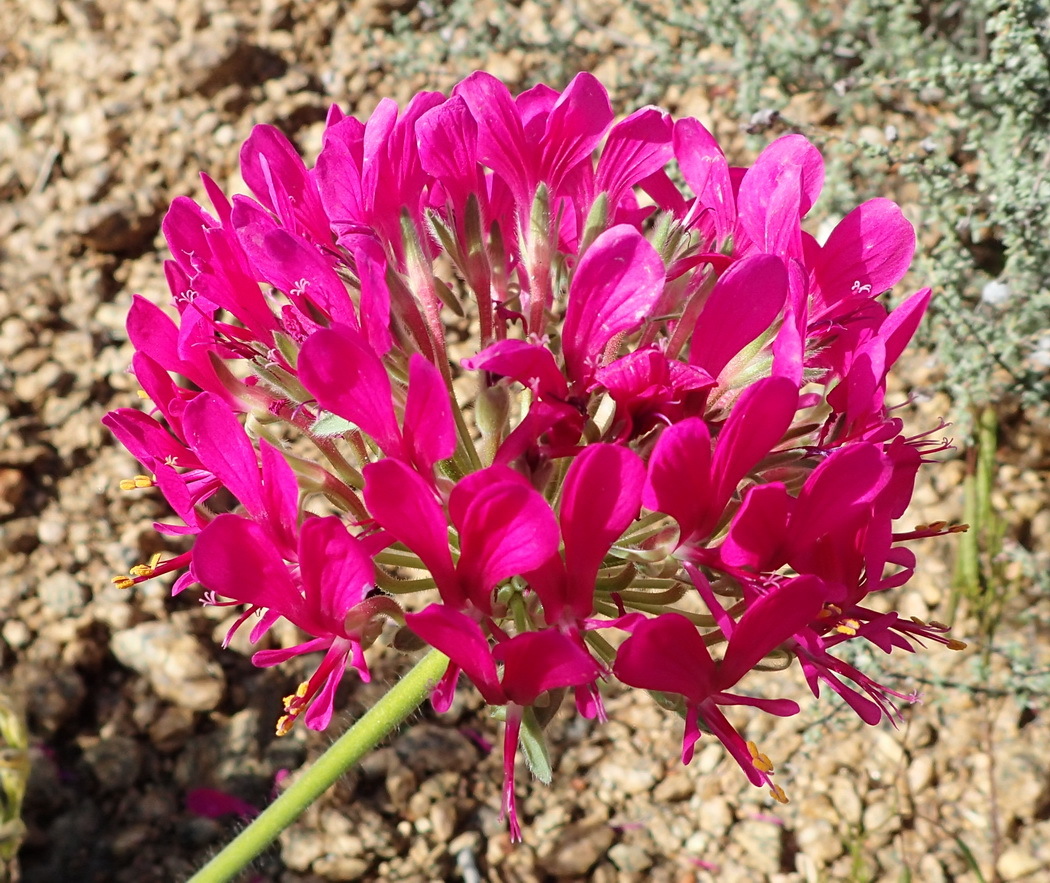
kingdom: Plantae
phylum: Tracheophyta
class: Magnoliopsida
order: Geraniales
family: Geraniaceae
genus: Pelargonium
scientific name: Pelargonium incrassatum
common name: Namaqualand beauty
